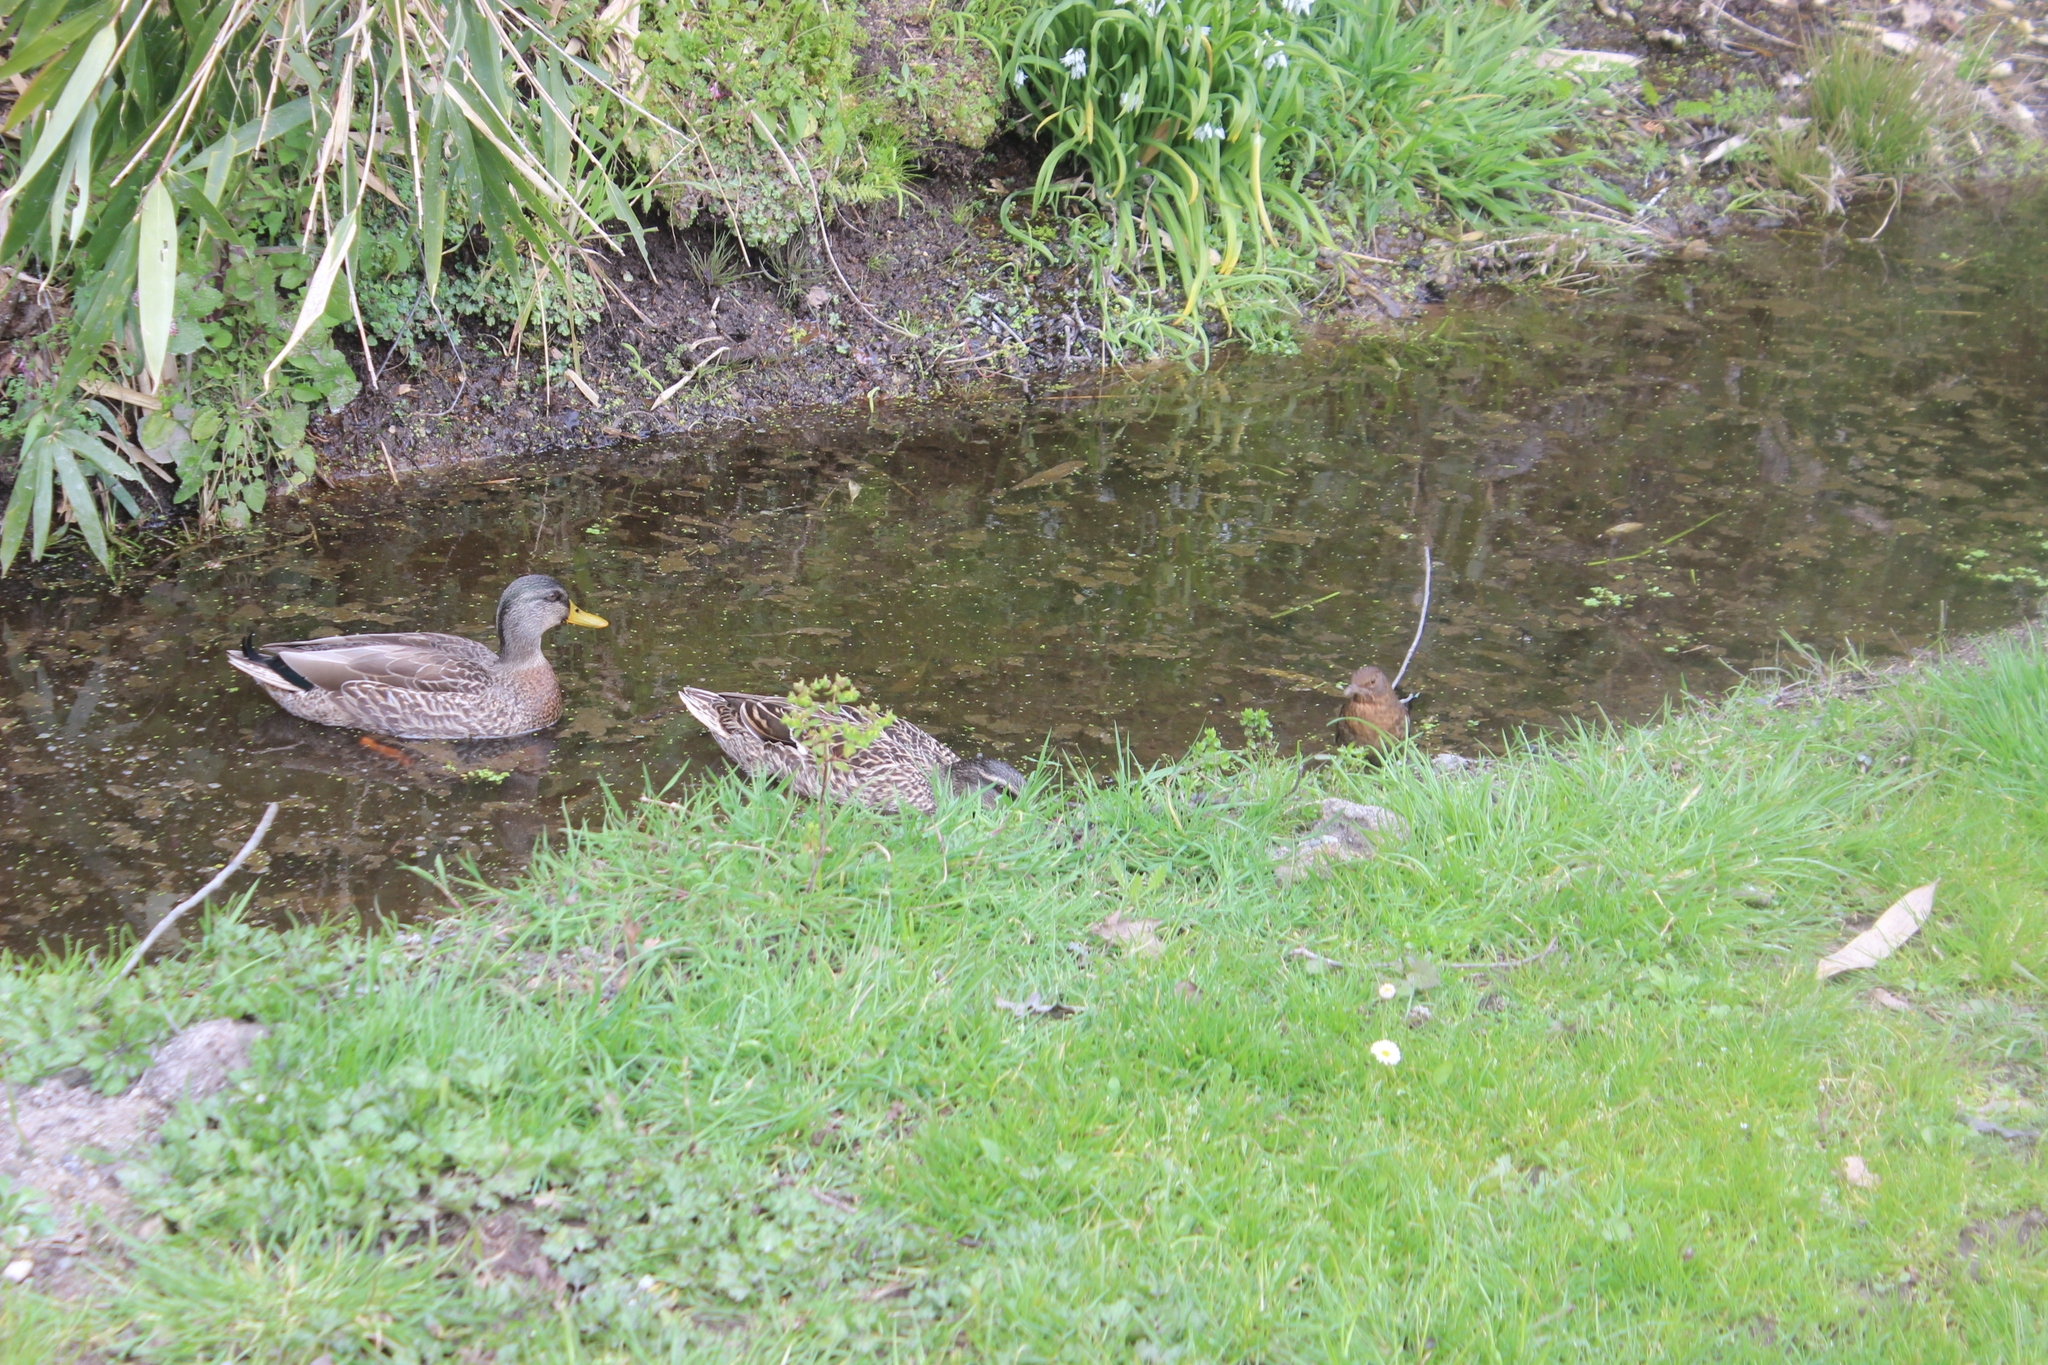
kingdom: Animalia
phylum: Chordata
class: Aves
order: Anseriformes
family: Anatidae
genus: Anas
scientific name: Anas platyrhynchos
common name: Mallard
